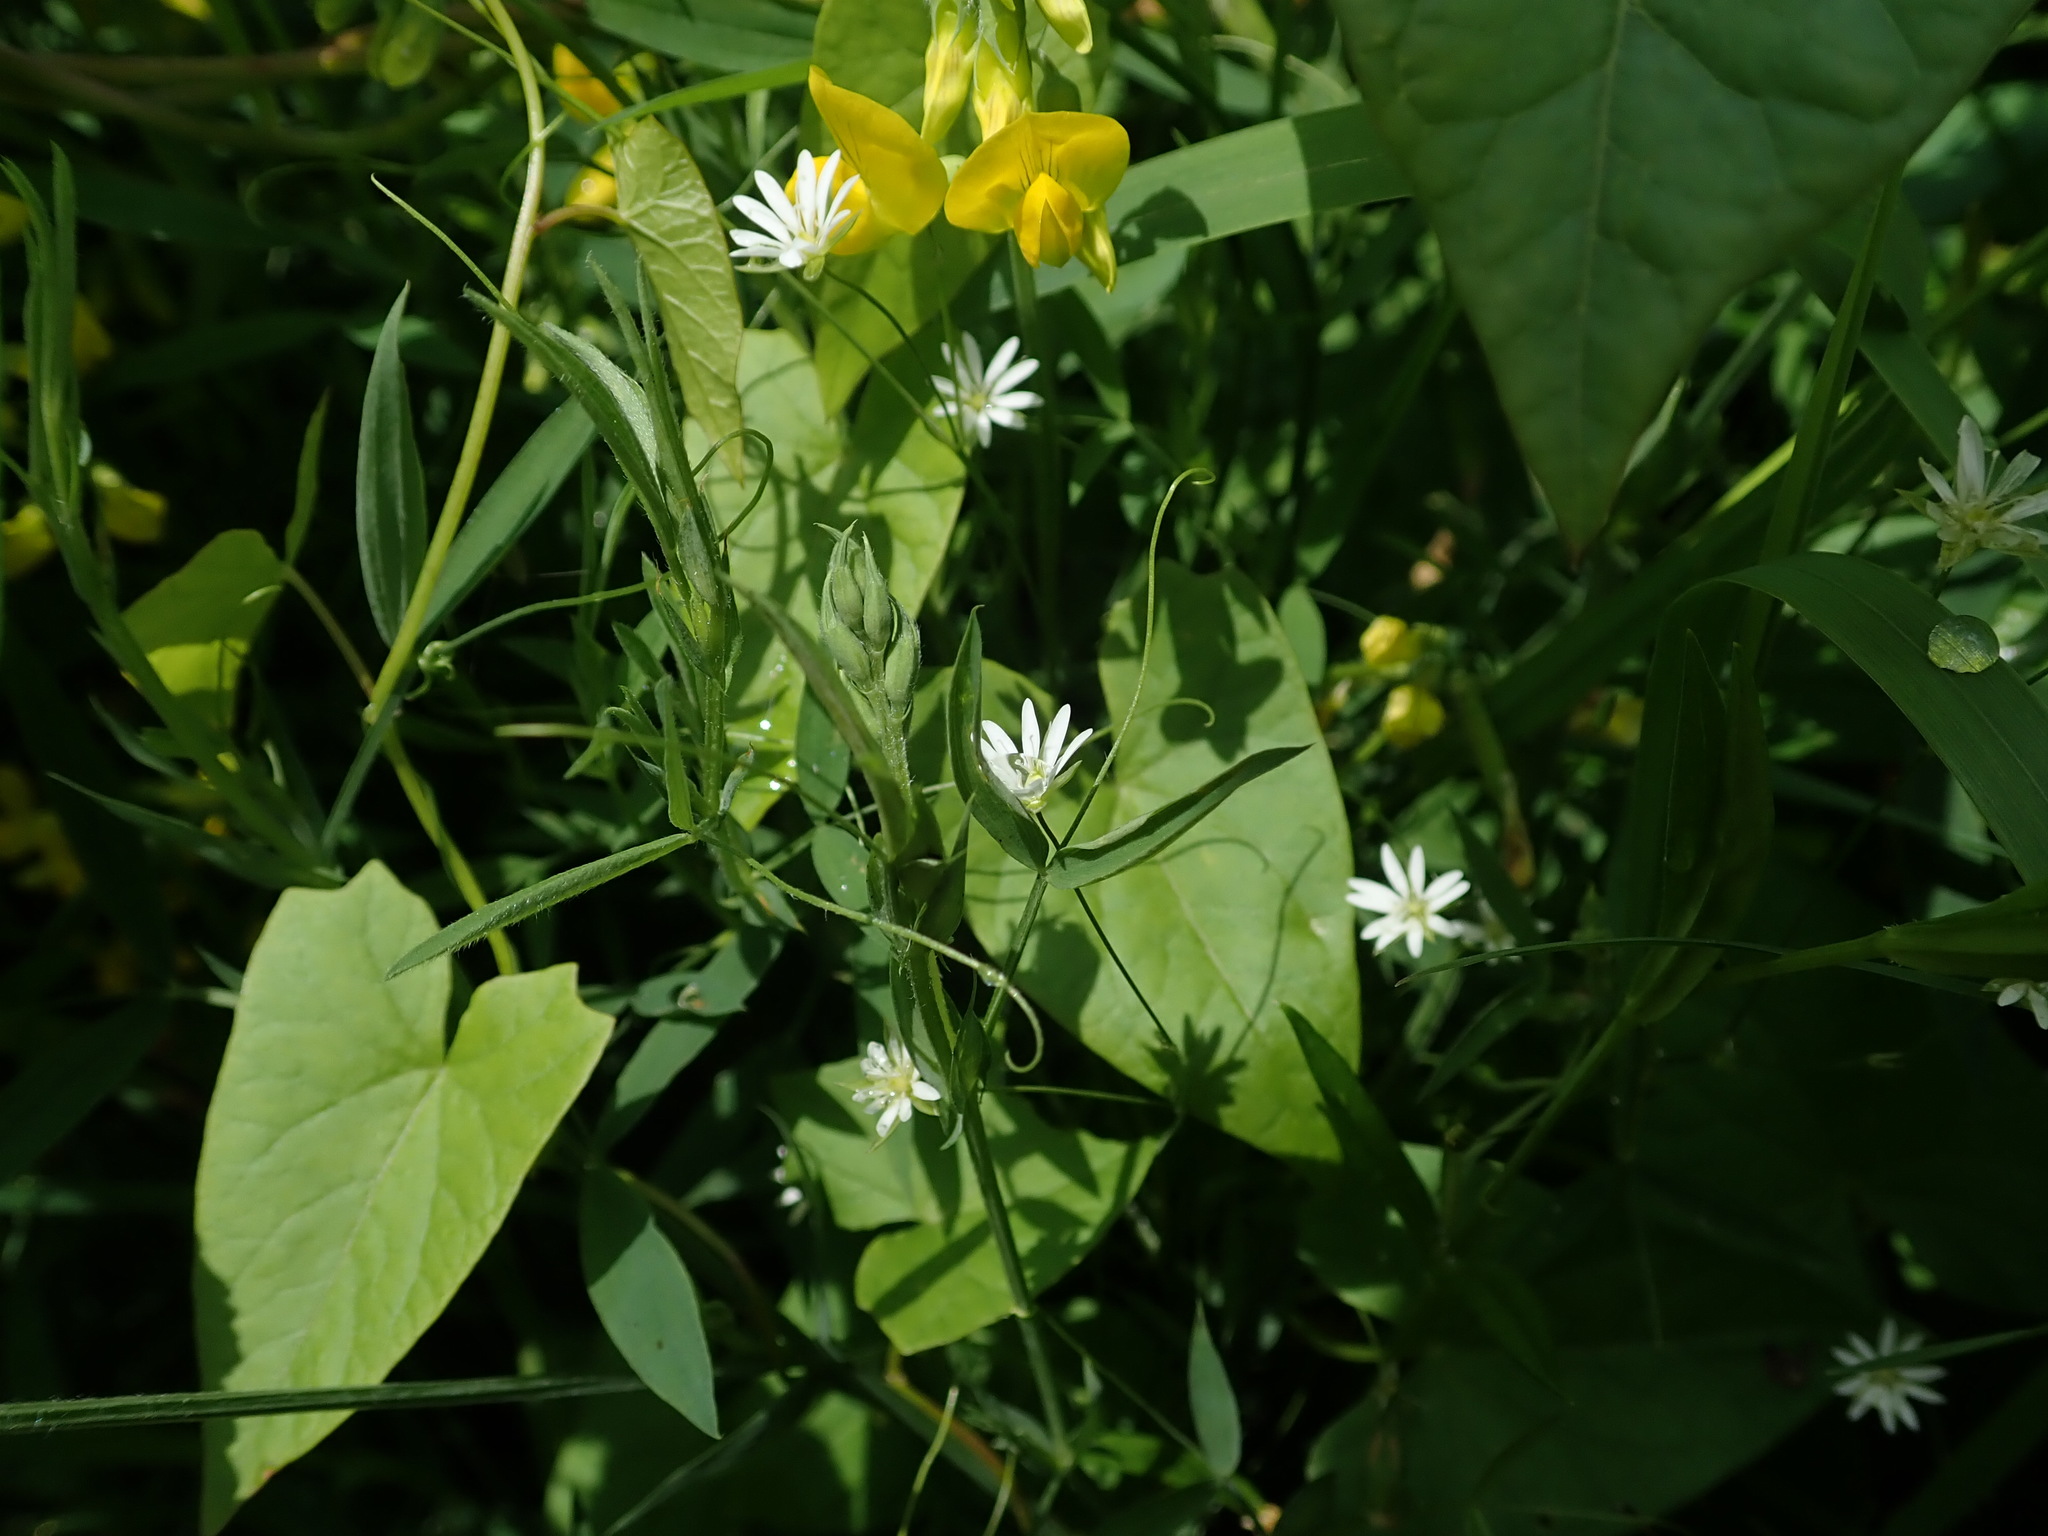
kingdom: Plantae
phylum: Tracheophyta
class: Magnoliopsida
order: Caryophyllales
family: Caryophyllaceae
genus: Stellaria
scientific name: Stellaria graminea
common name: Grass-like starwort
